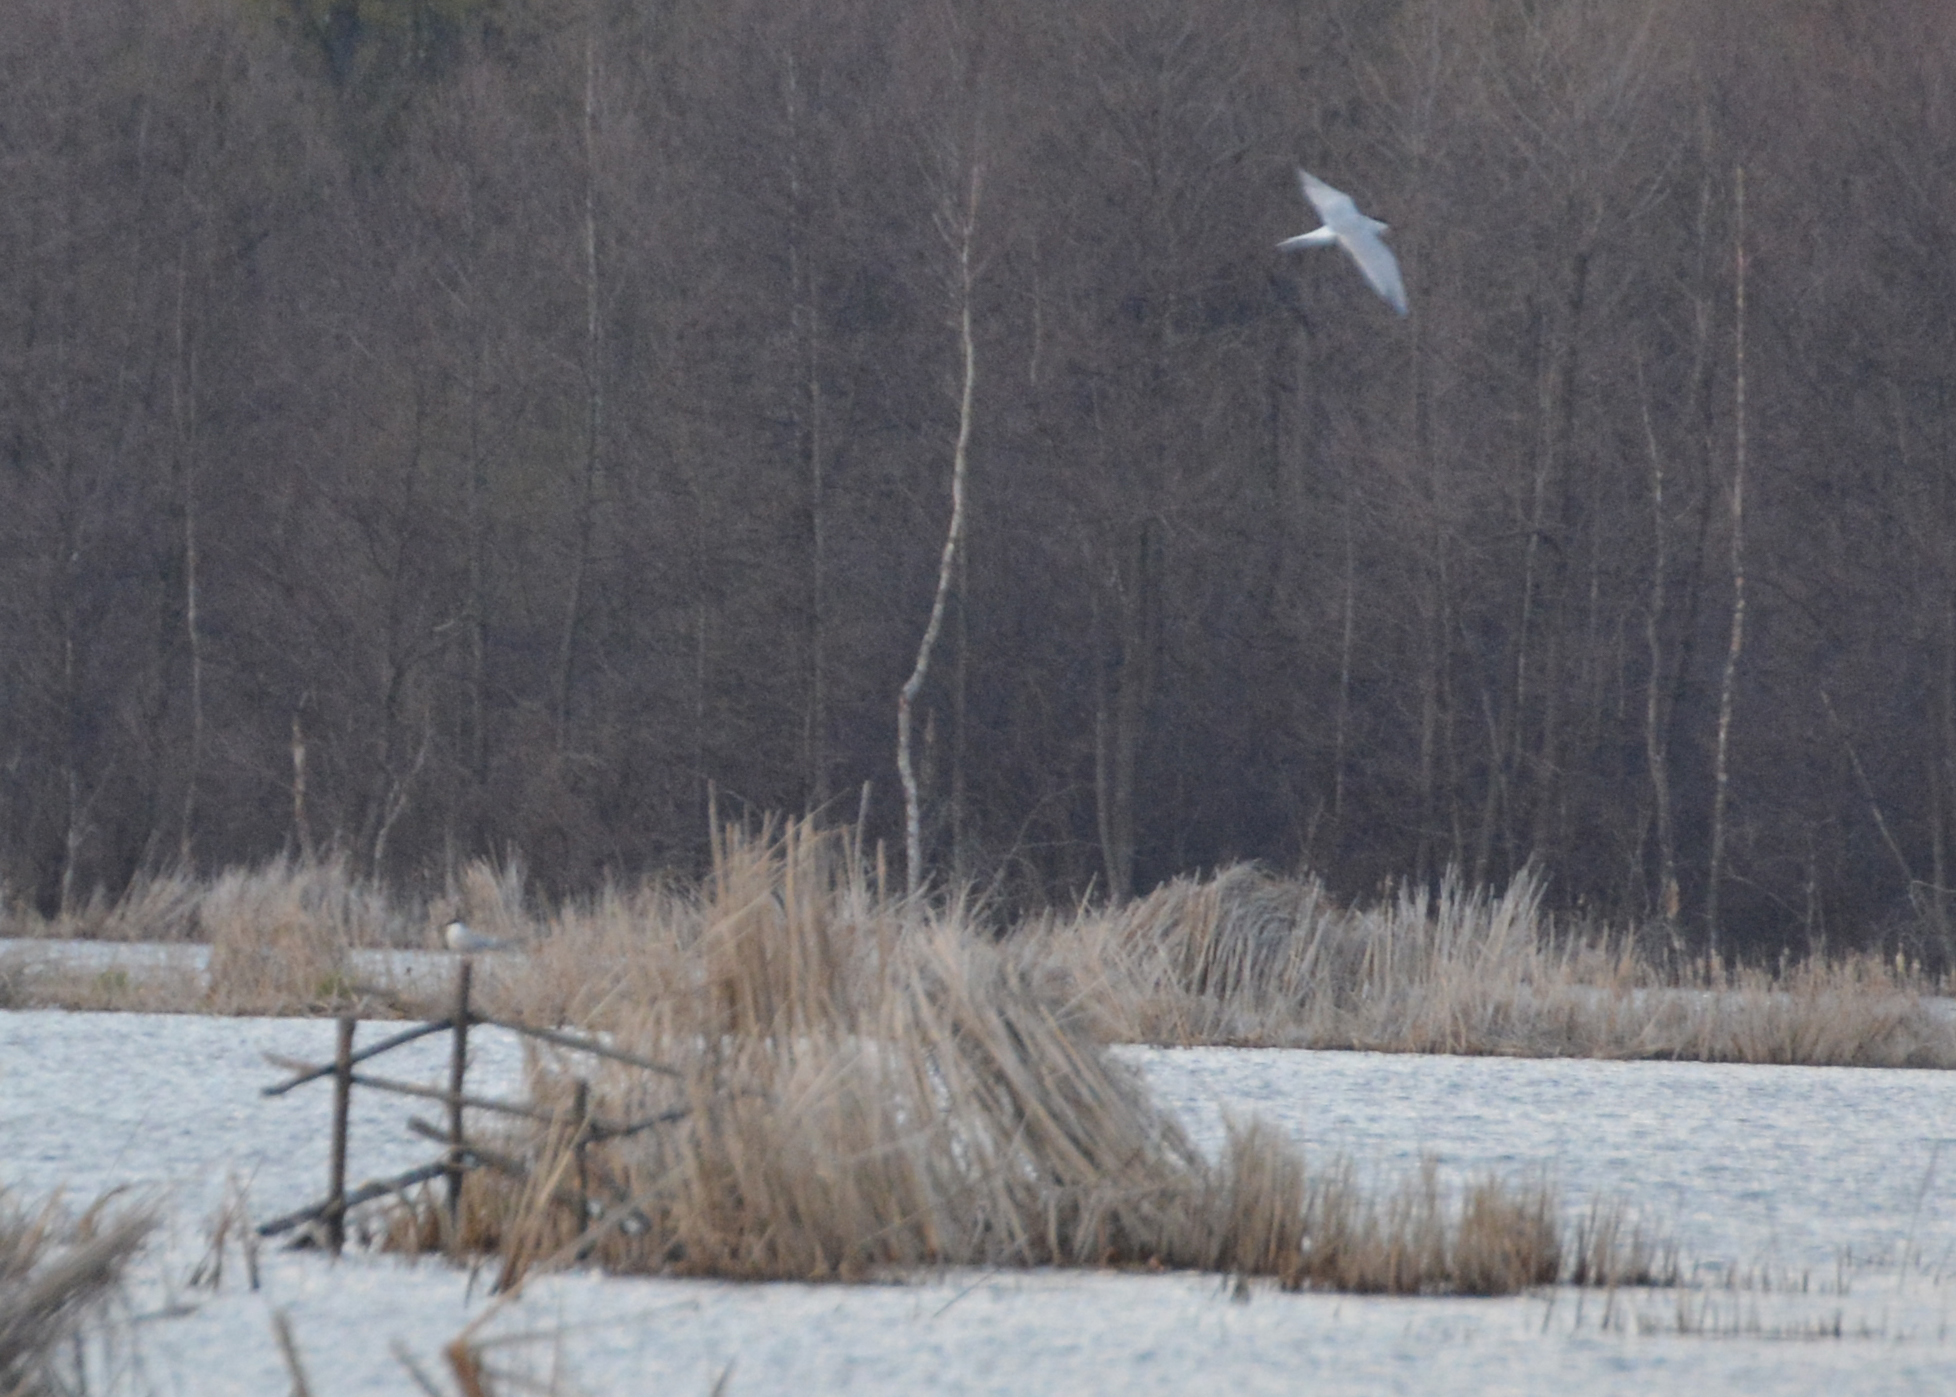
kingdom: Animalia
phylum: Chordata
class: Aves
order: Charadriiformes
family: Laridae
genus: Sterna
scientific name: Sterna hirundo
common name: Common tern
